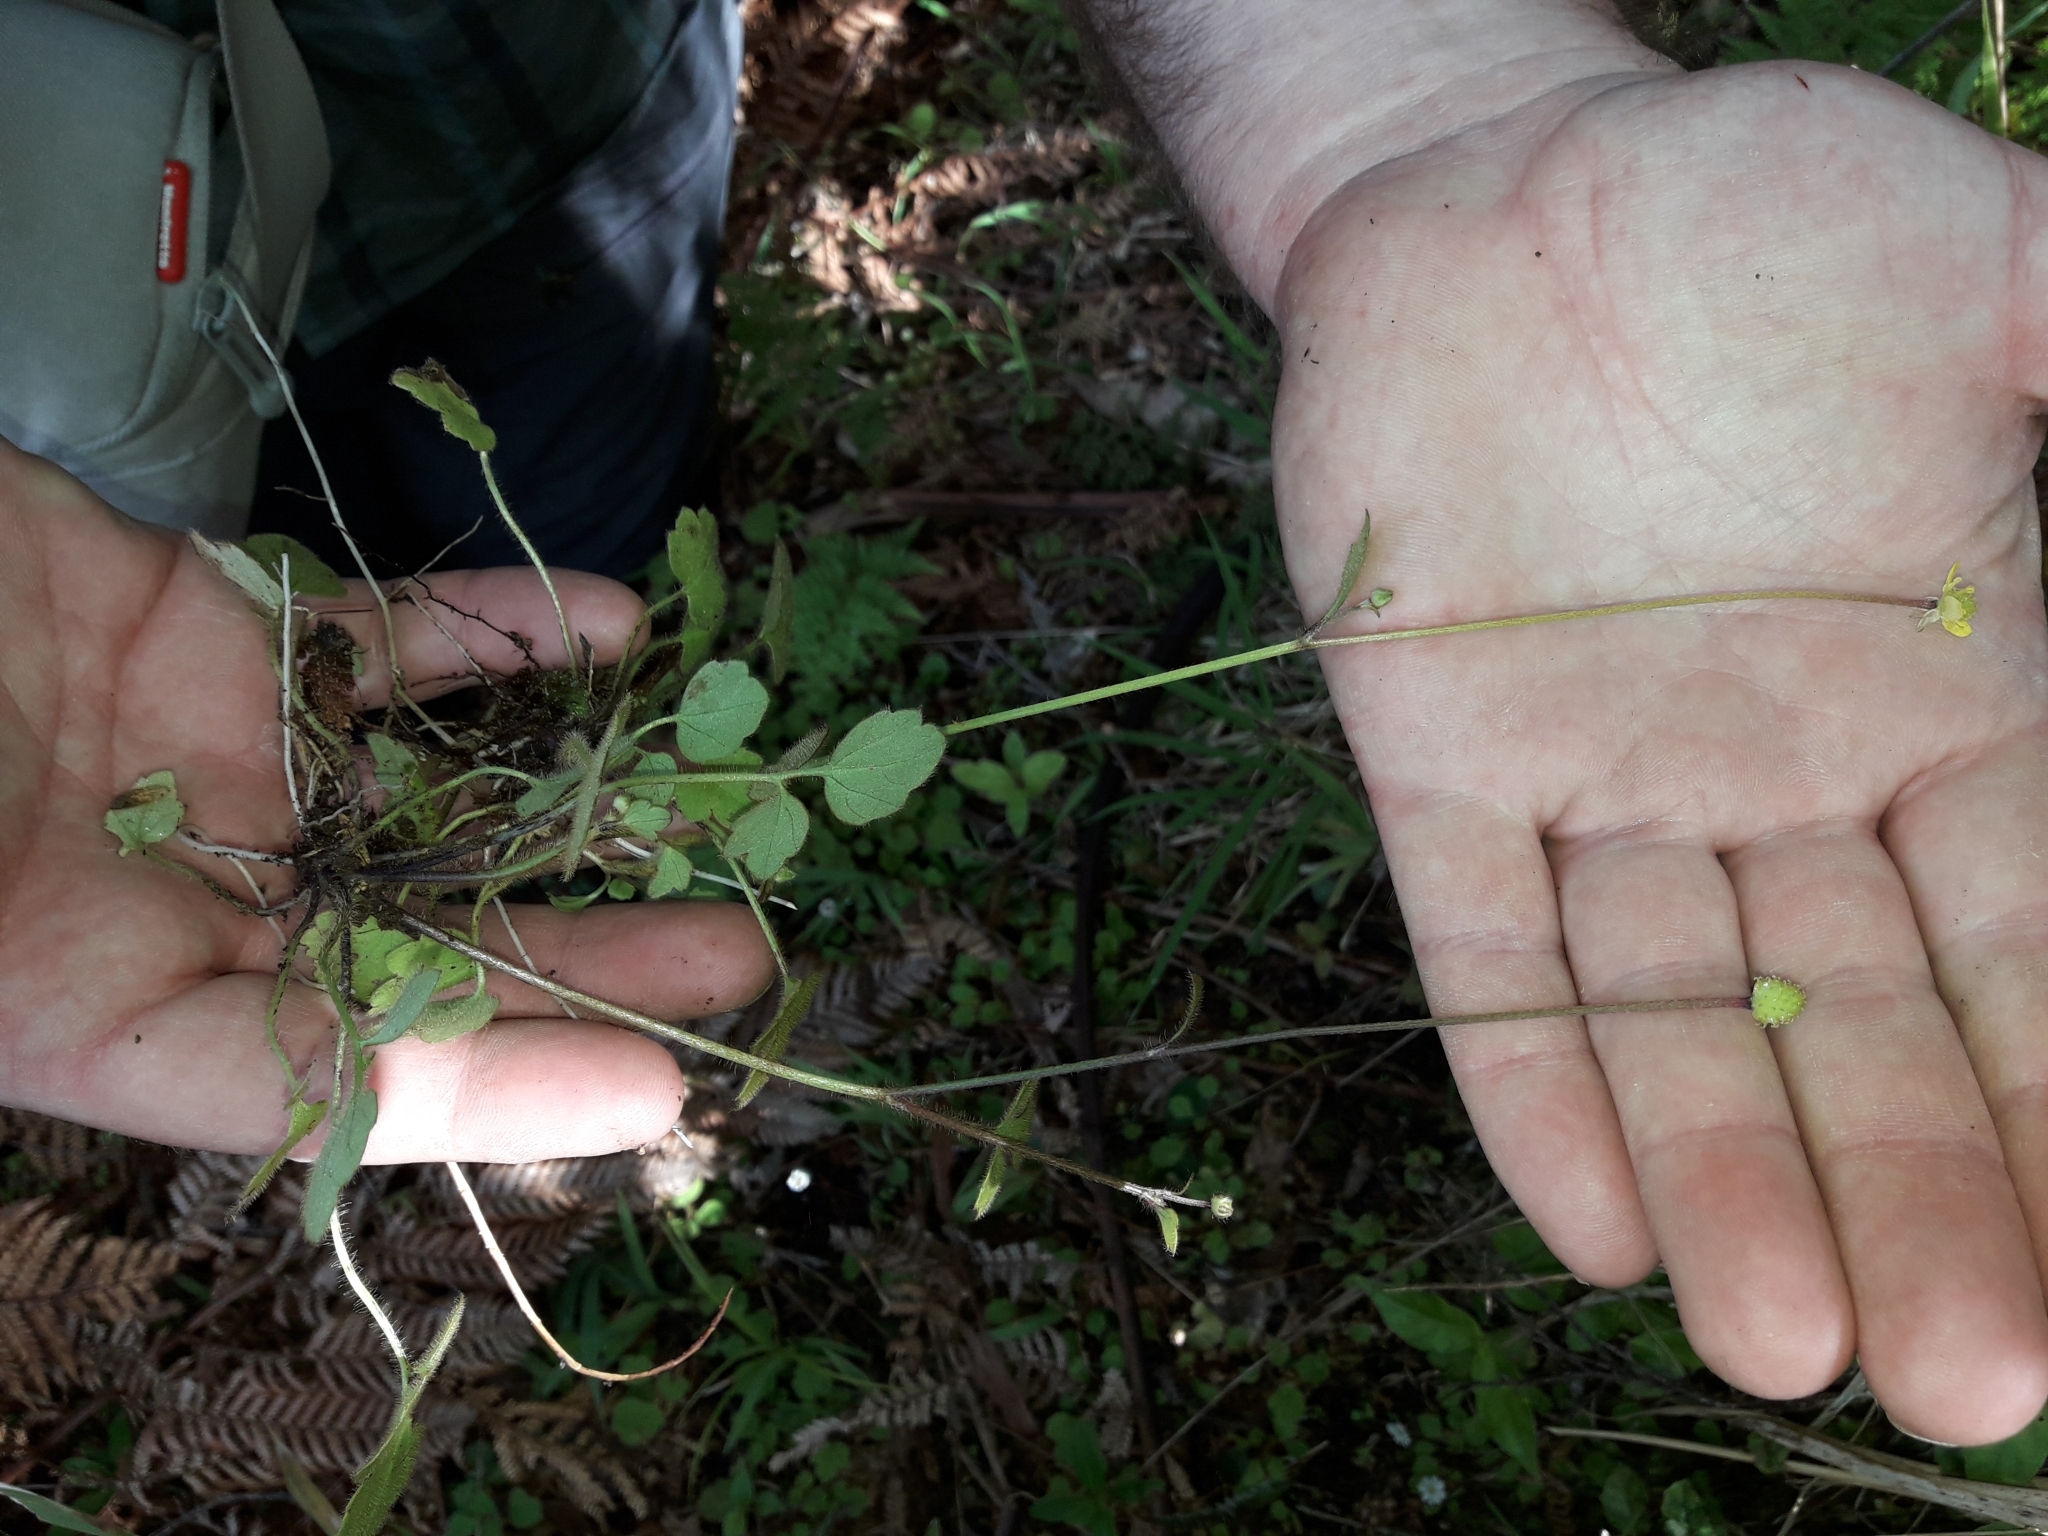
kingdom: Plantae
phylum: Tracheophyta
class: Magnoliopsida
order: Ranunculales
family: Ranunculaceae
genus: Ranunculus
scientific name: Ranunculus reflexus
